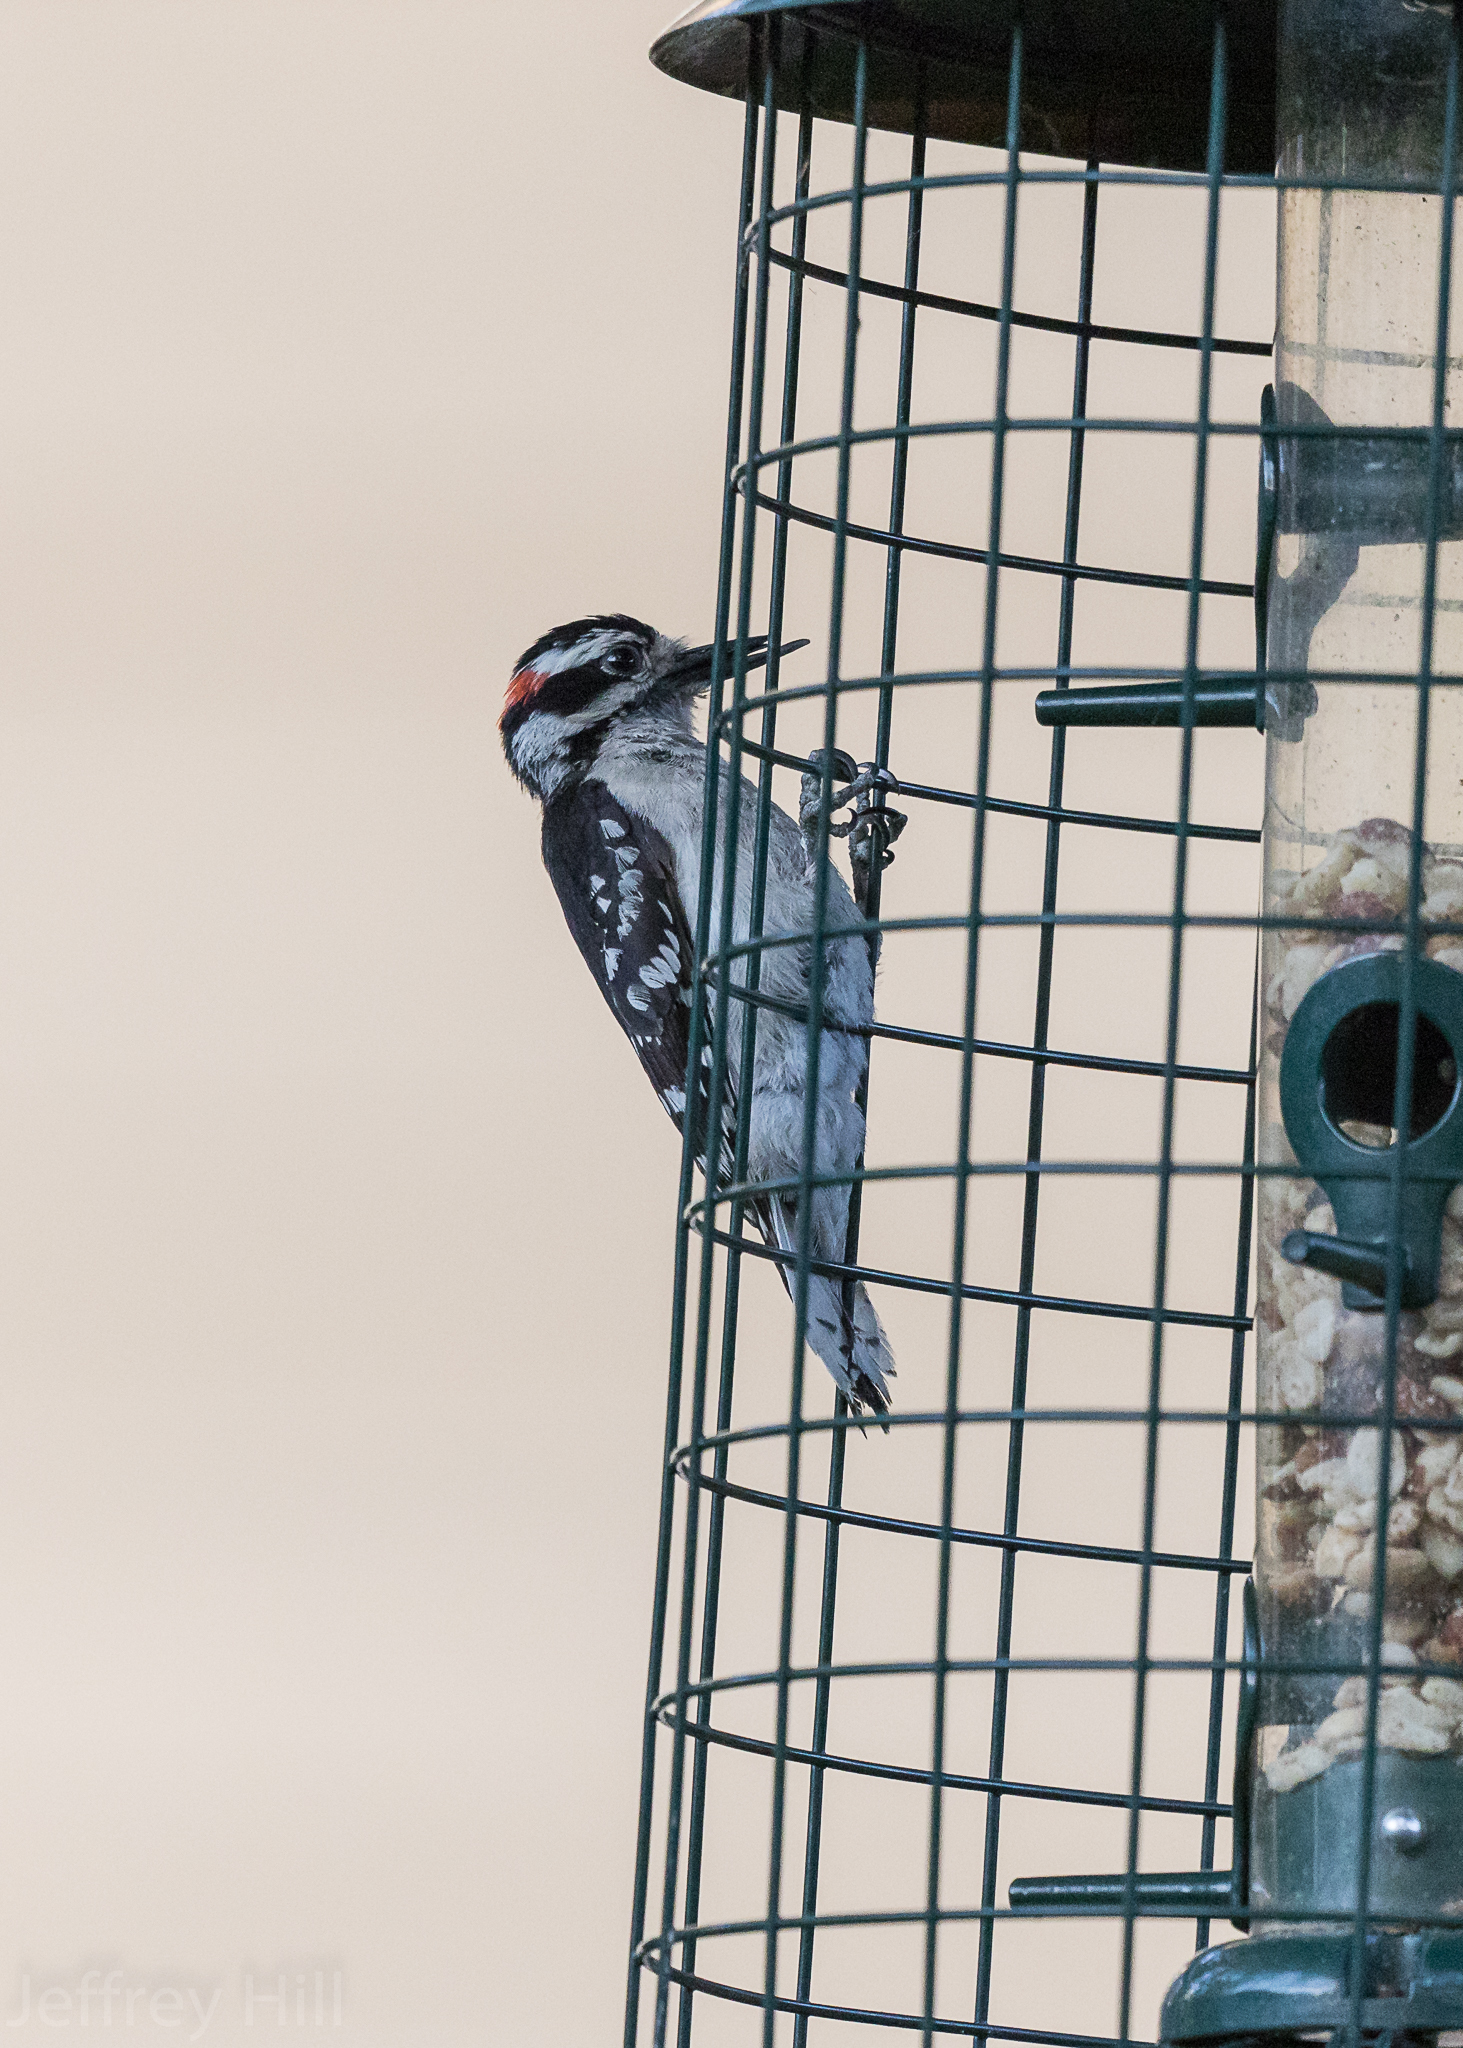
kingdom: Animalia
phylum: Chordata
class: Aves
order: Piciformes
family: Picidae
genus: Dryobates
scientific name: Dryobates pubescens
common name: Downy woodpecker
